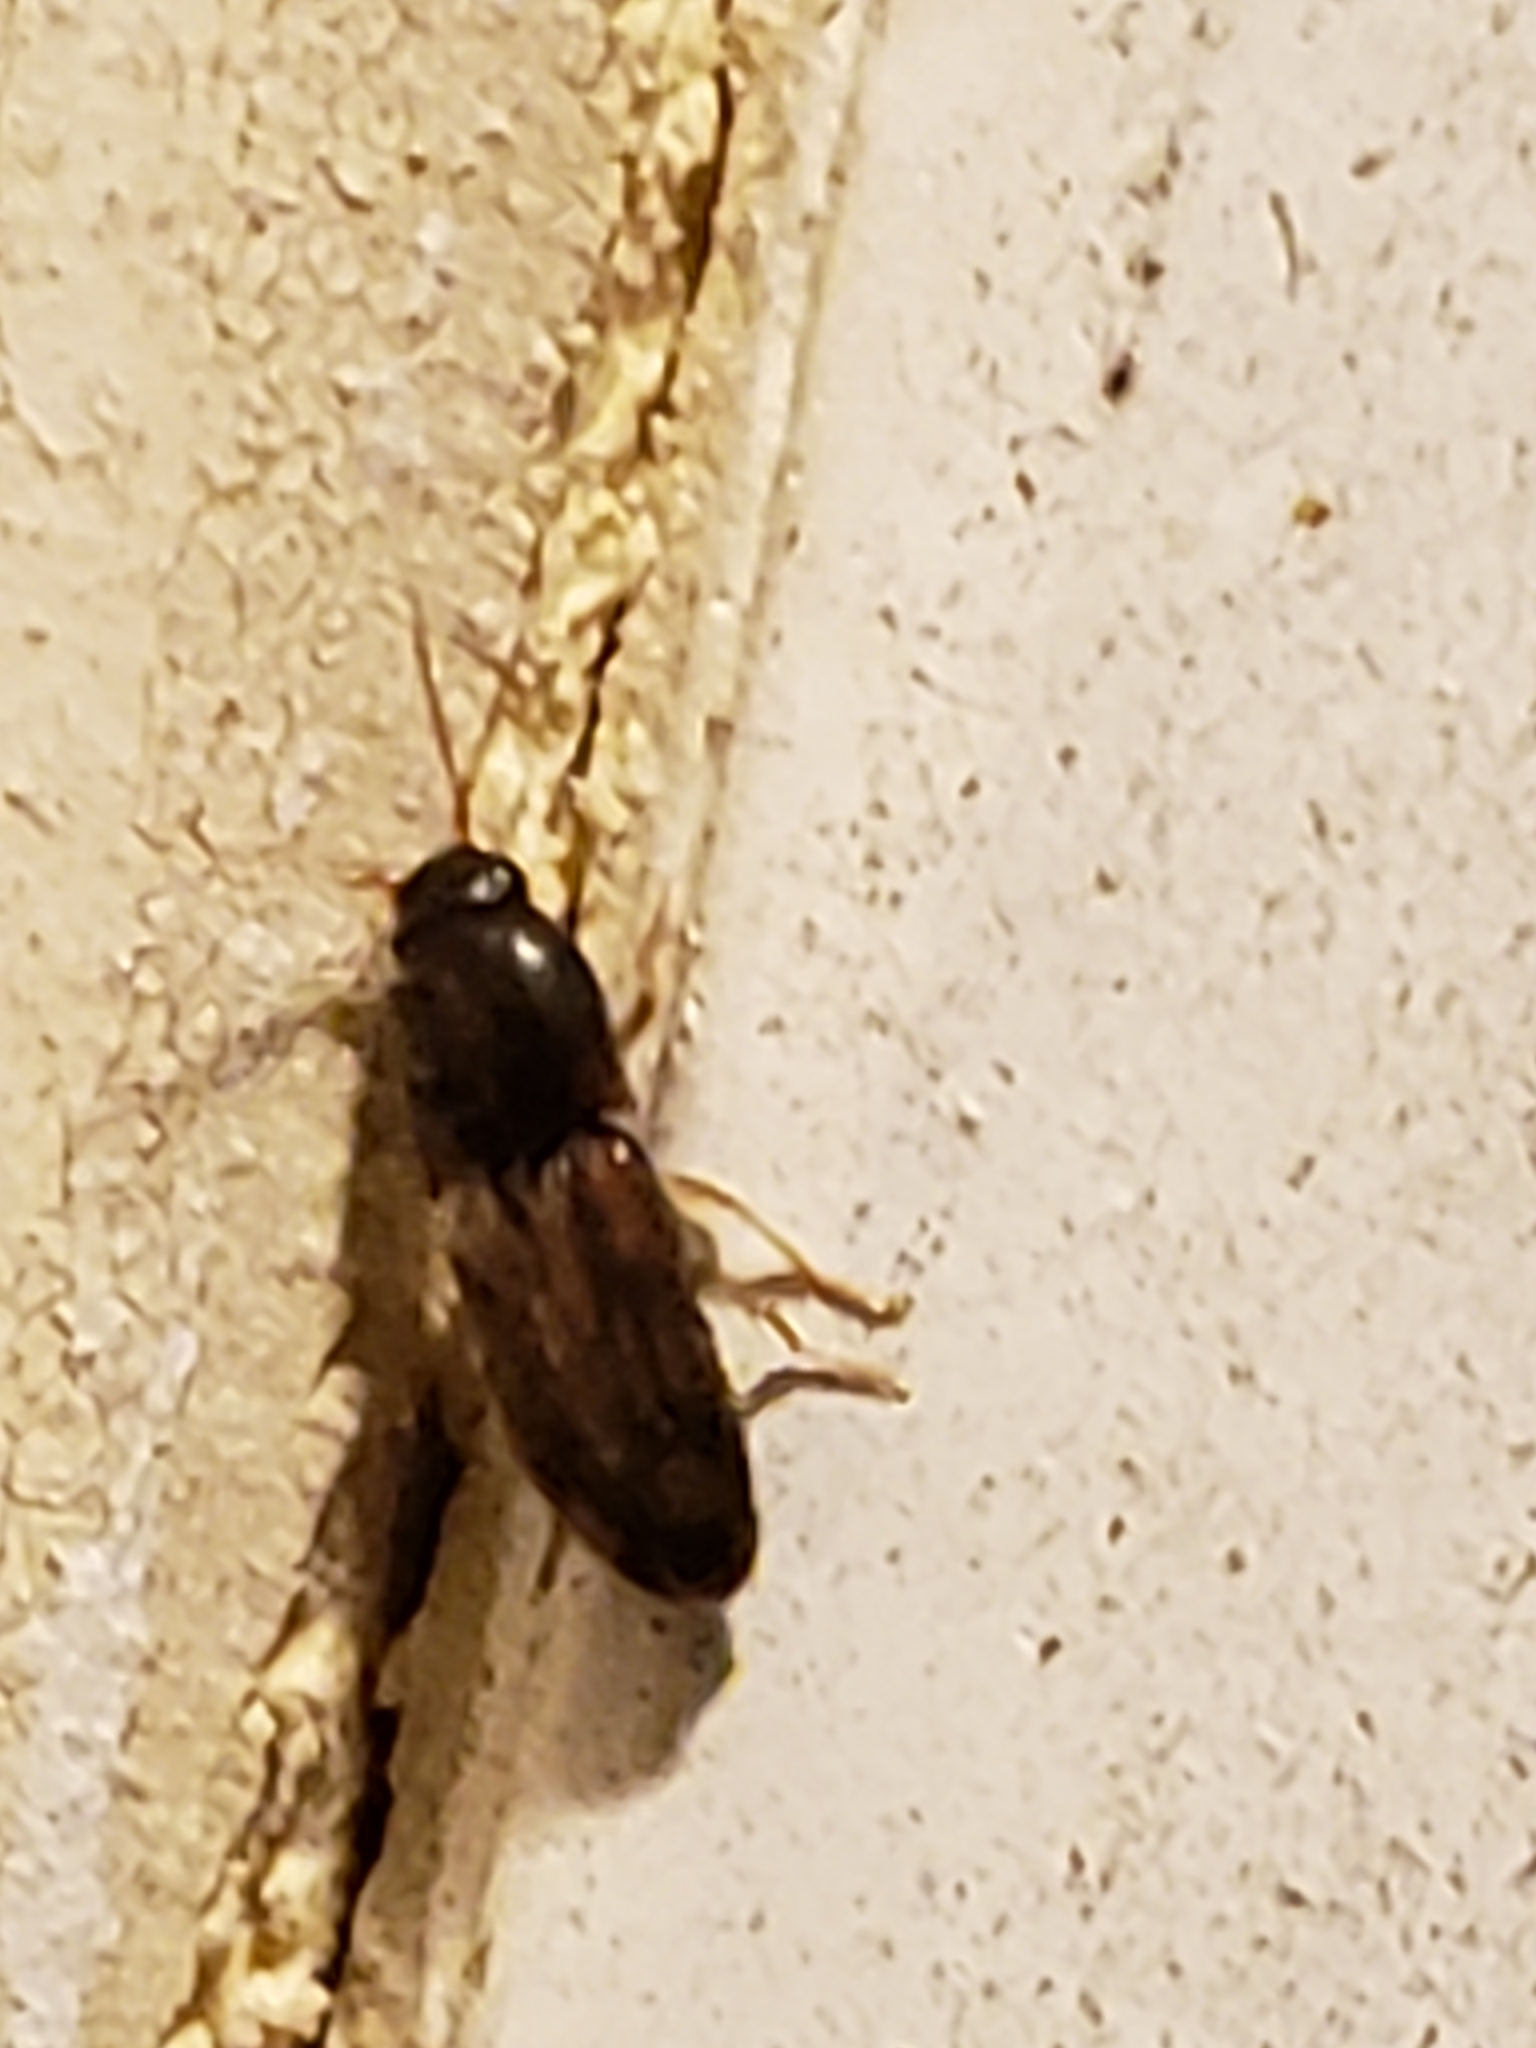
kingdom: Animalia
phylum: Arthropoda
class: Insecta
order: Coleoptera
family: Elateridae
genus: Monocrepidius
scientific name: Monocrepidius bellus
